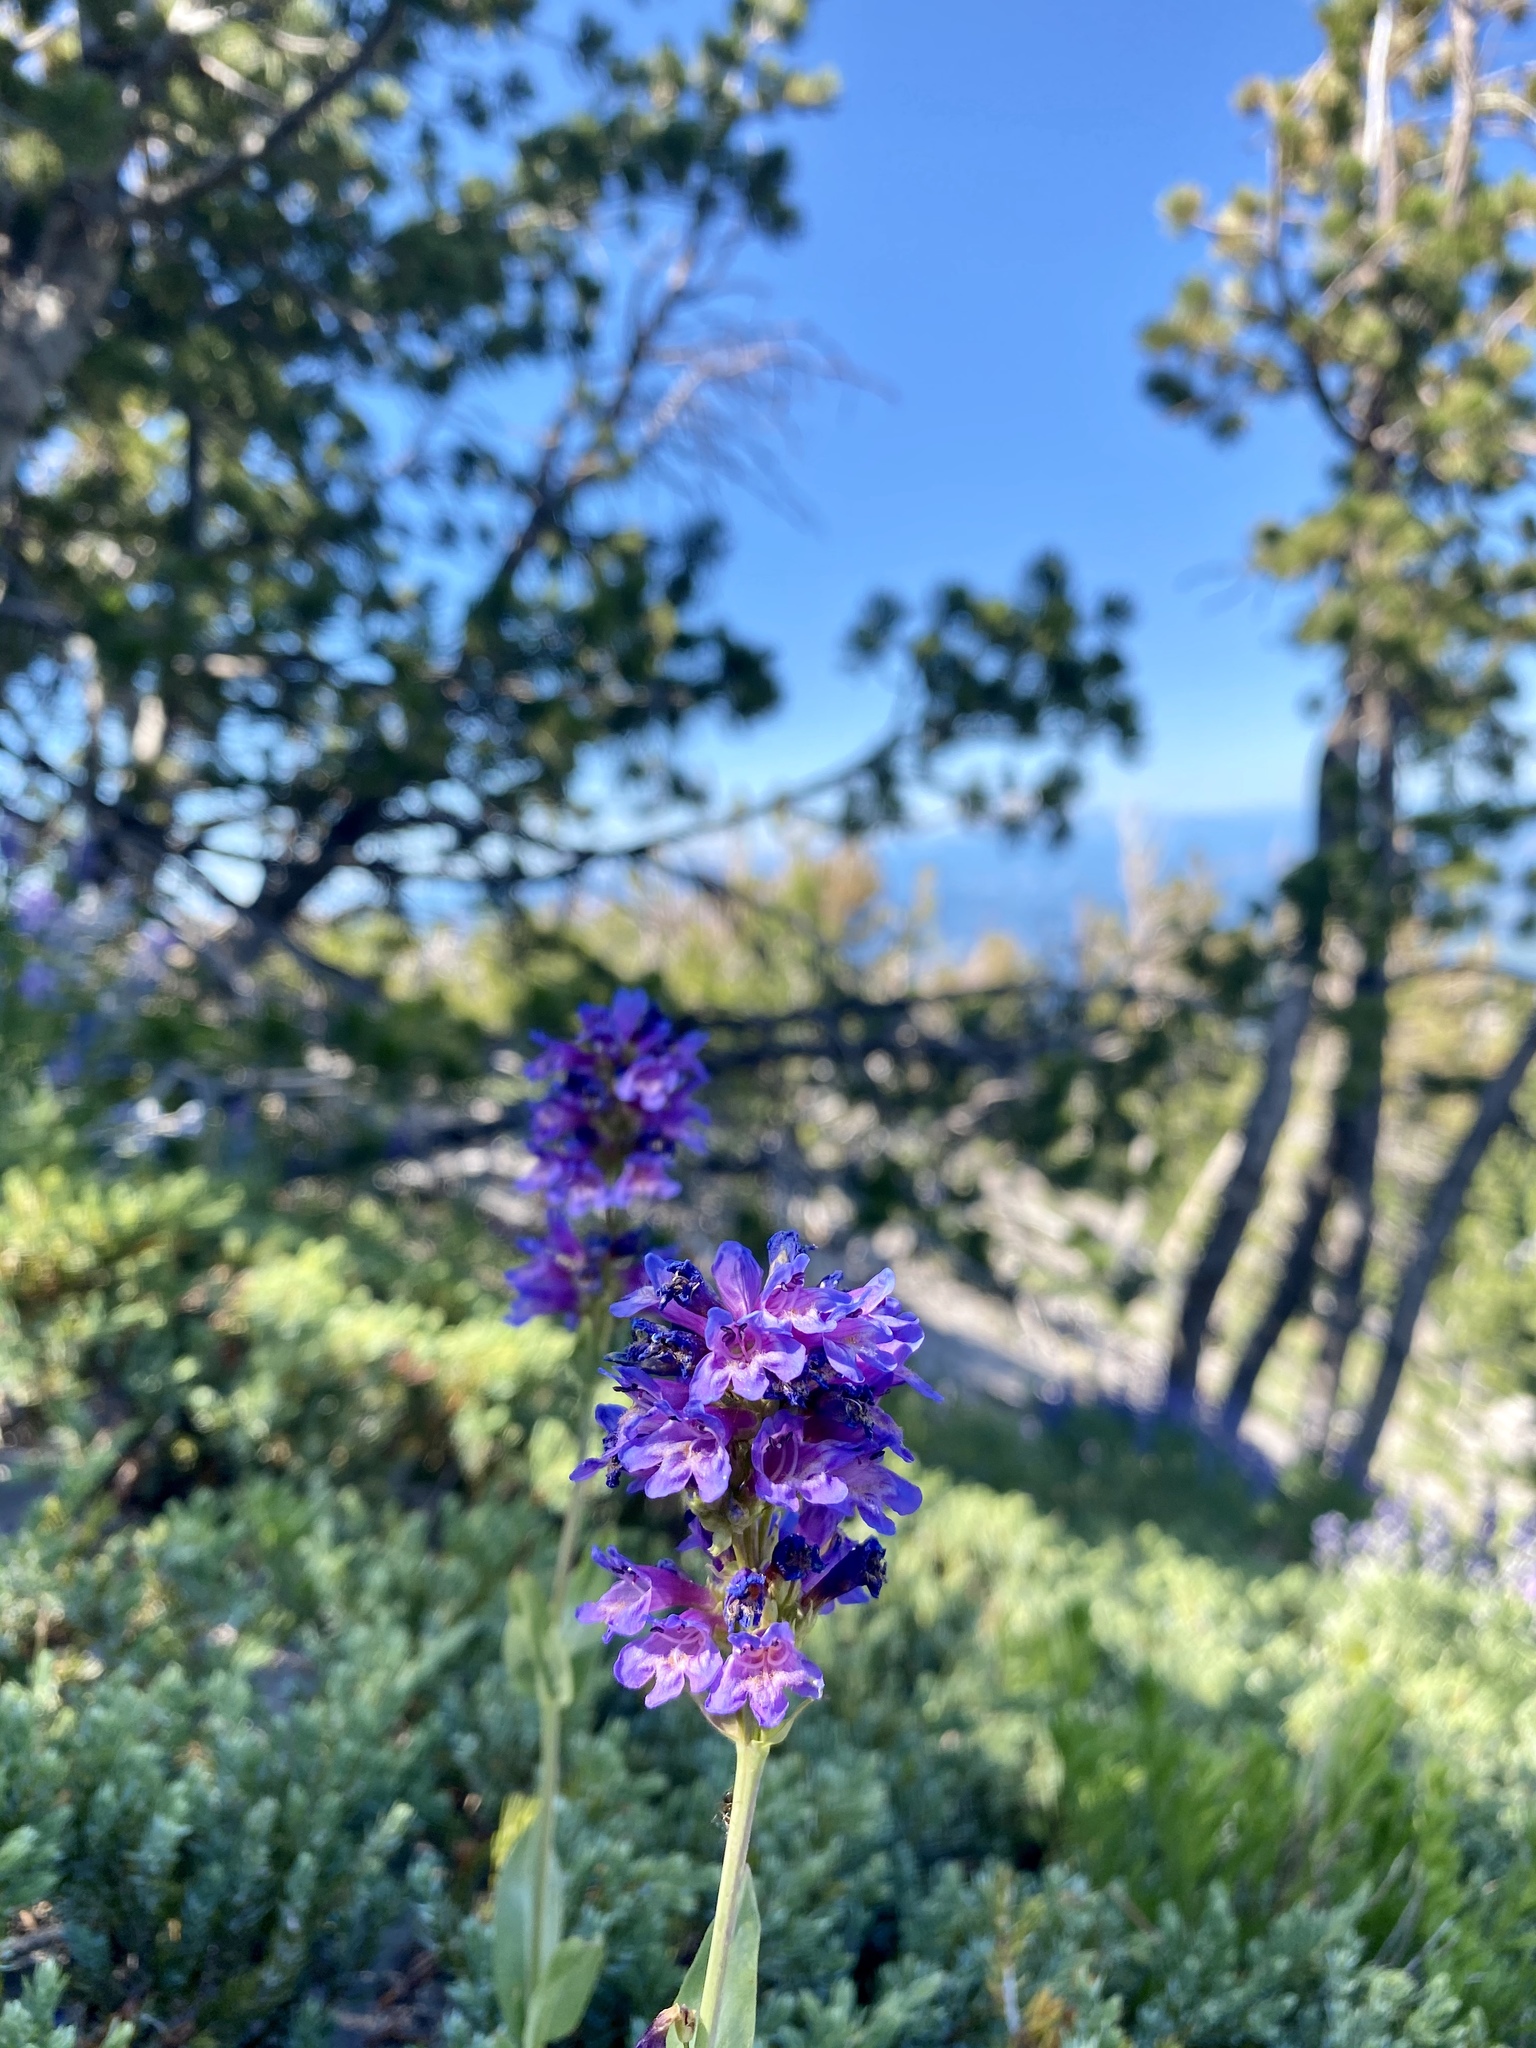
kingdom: Plantae
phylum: Tracheophyta
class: Magnoliopsida
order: Lamiales
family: Plantaginaceae
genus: Penstemon
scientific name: Penstemon euglaucus
